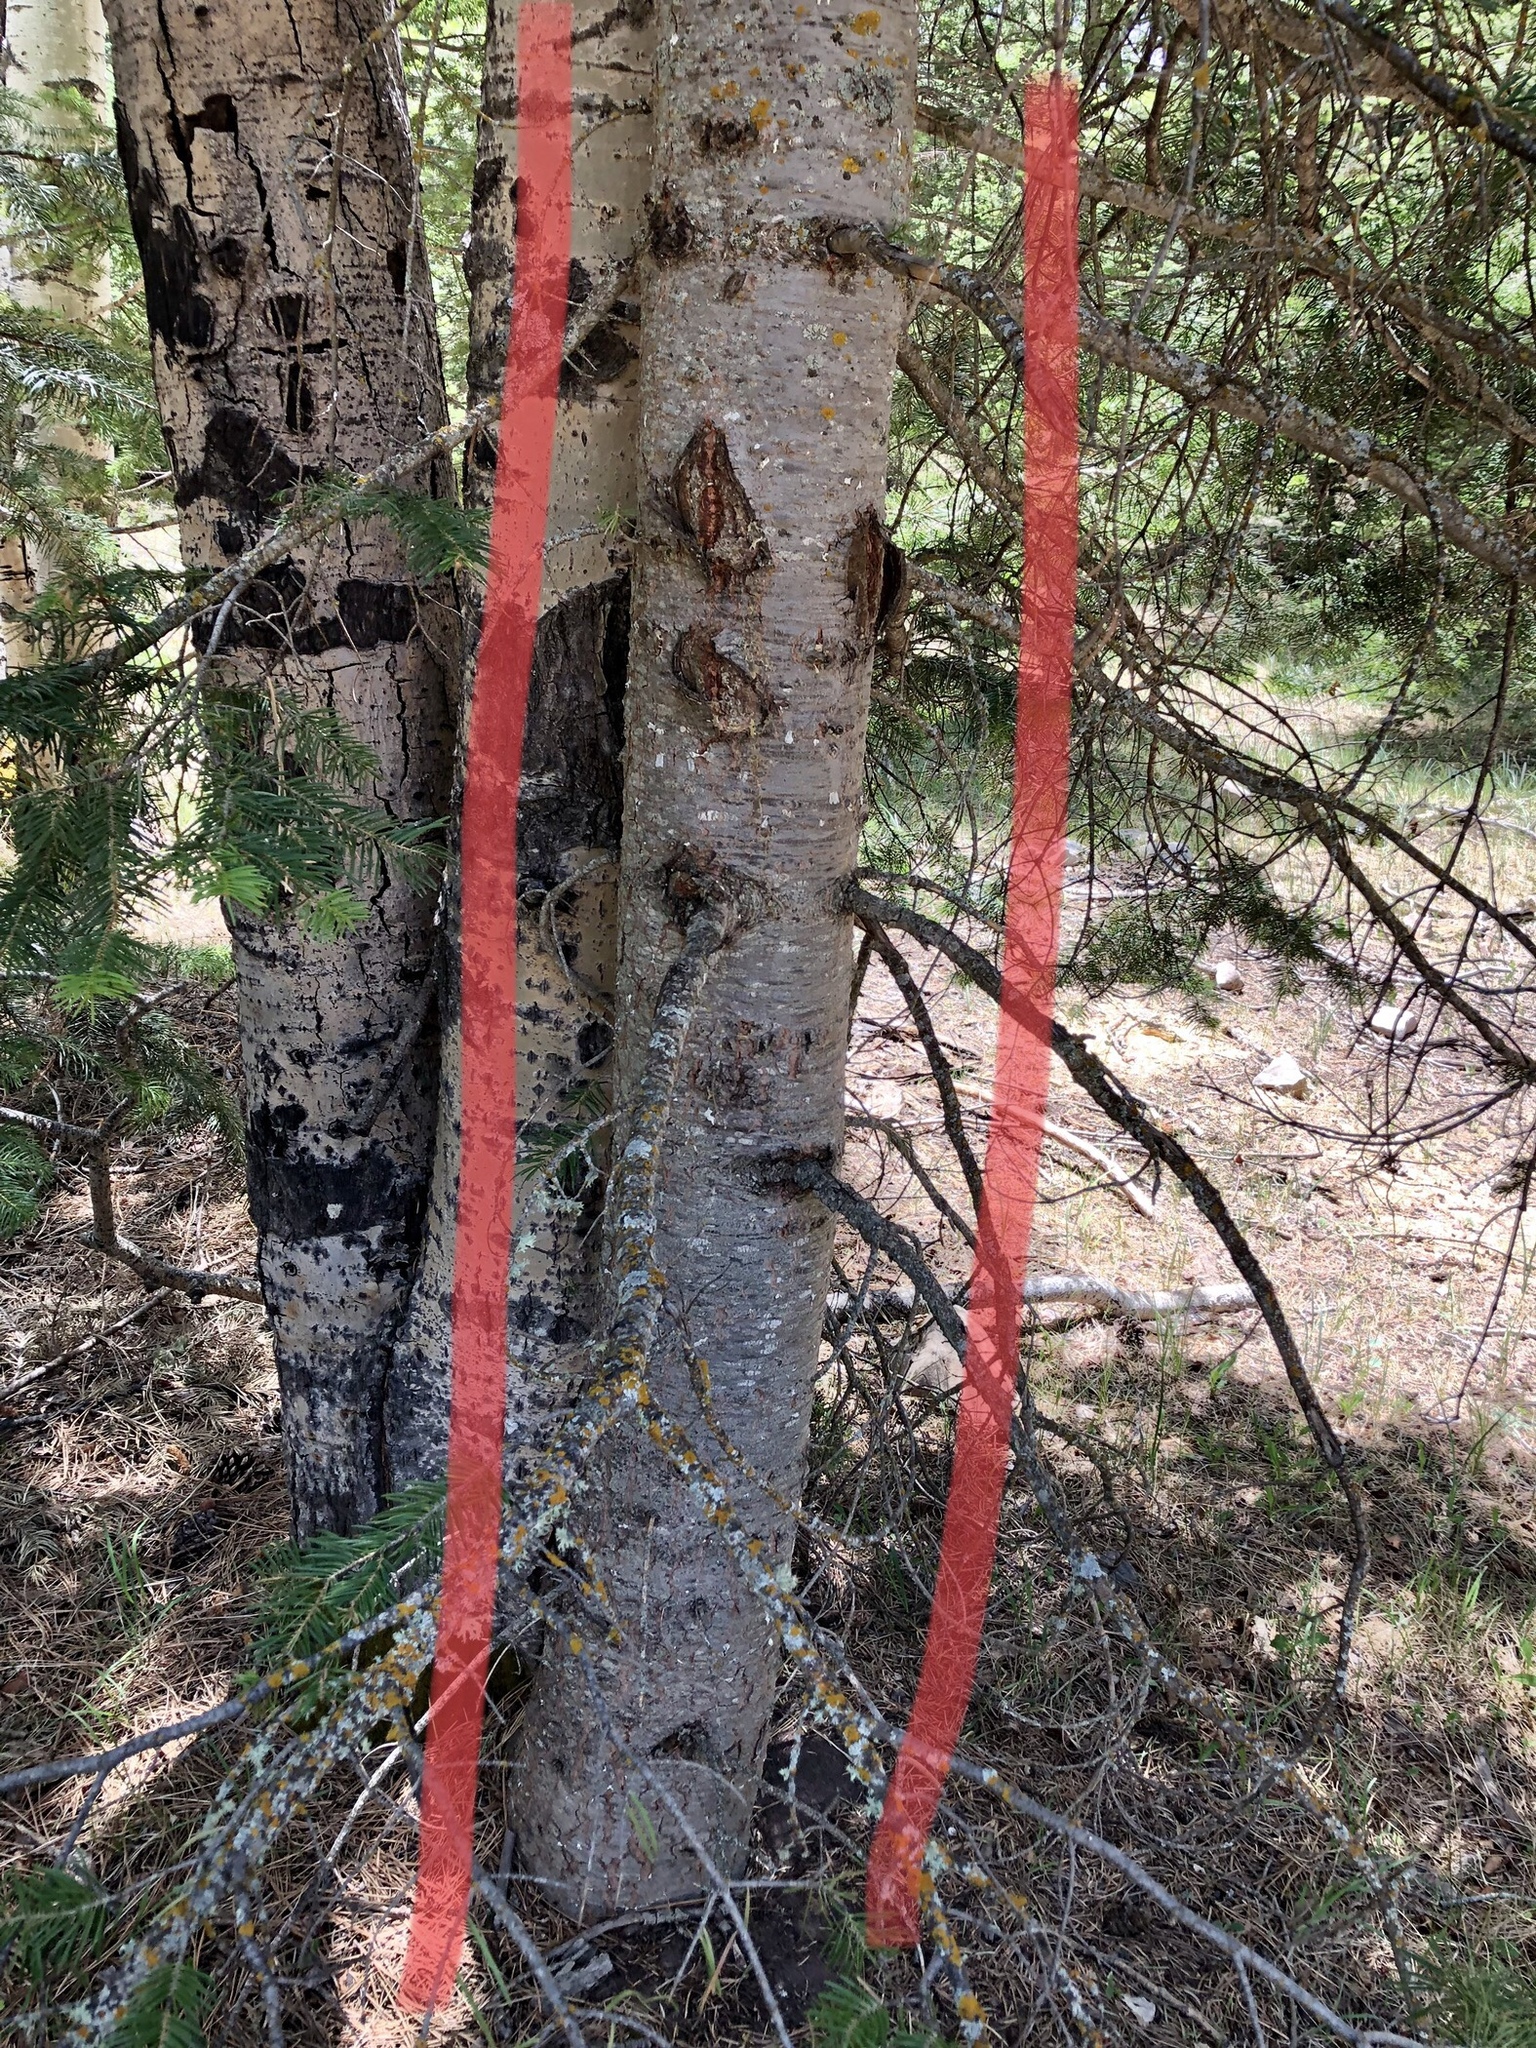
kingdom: Plantae
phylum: Tracheophyta
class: Pinopsida
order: Pinales
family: Pinaceae
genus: Abies
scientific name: Abies concolor
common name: Colorado fir
